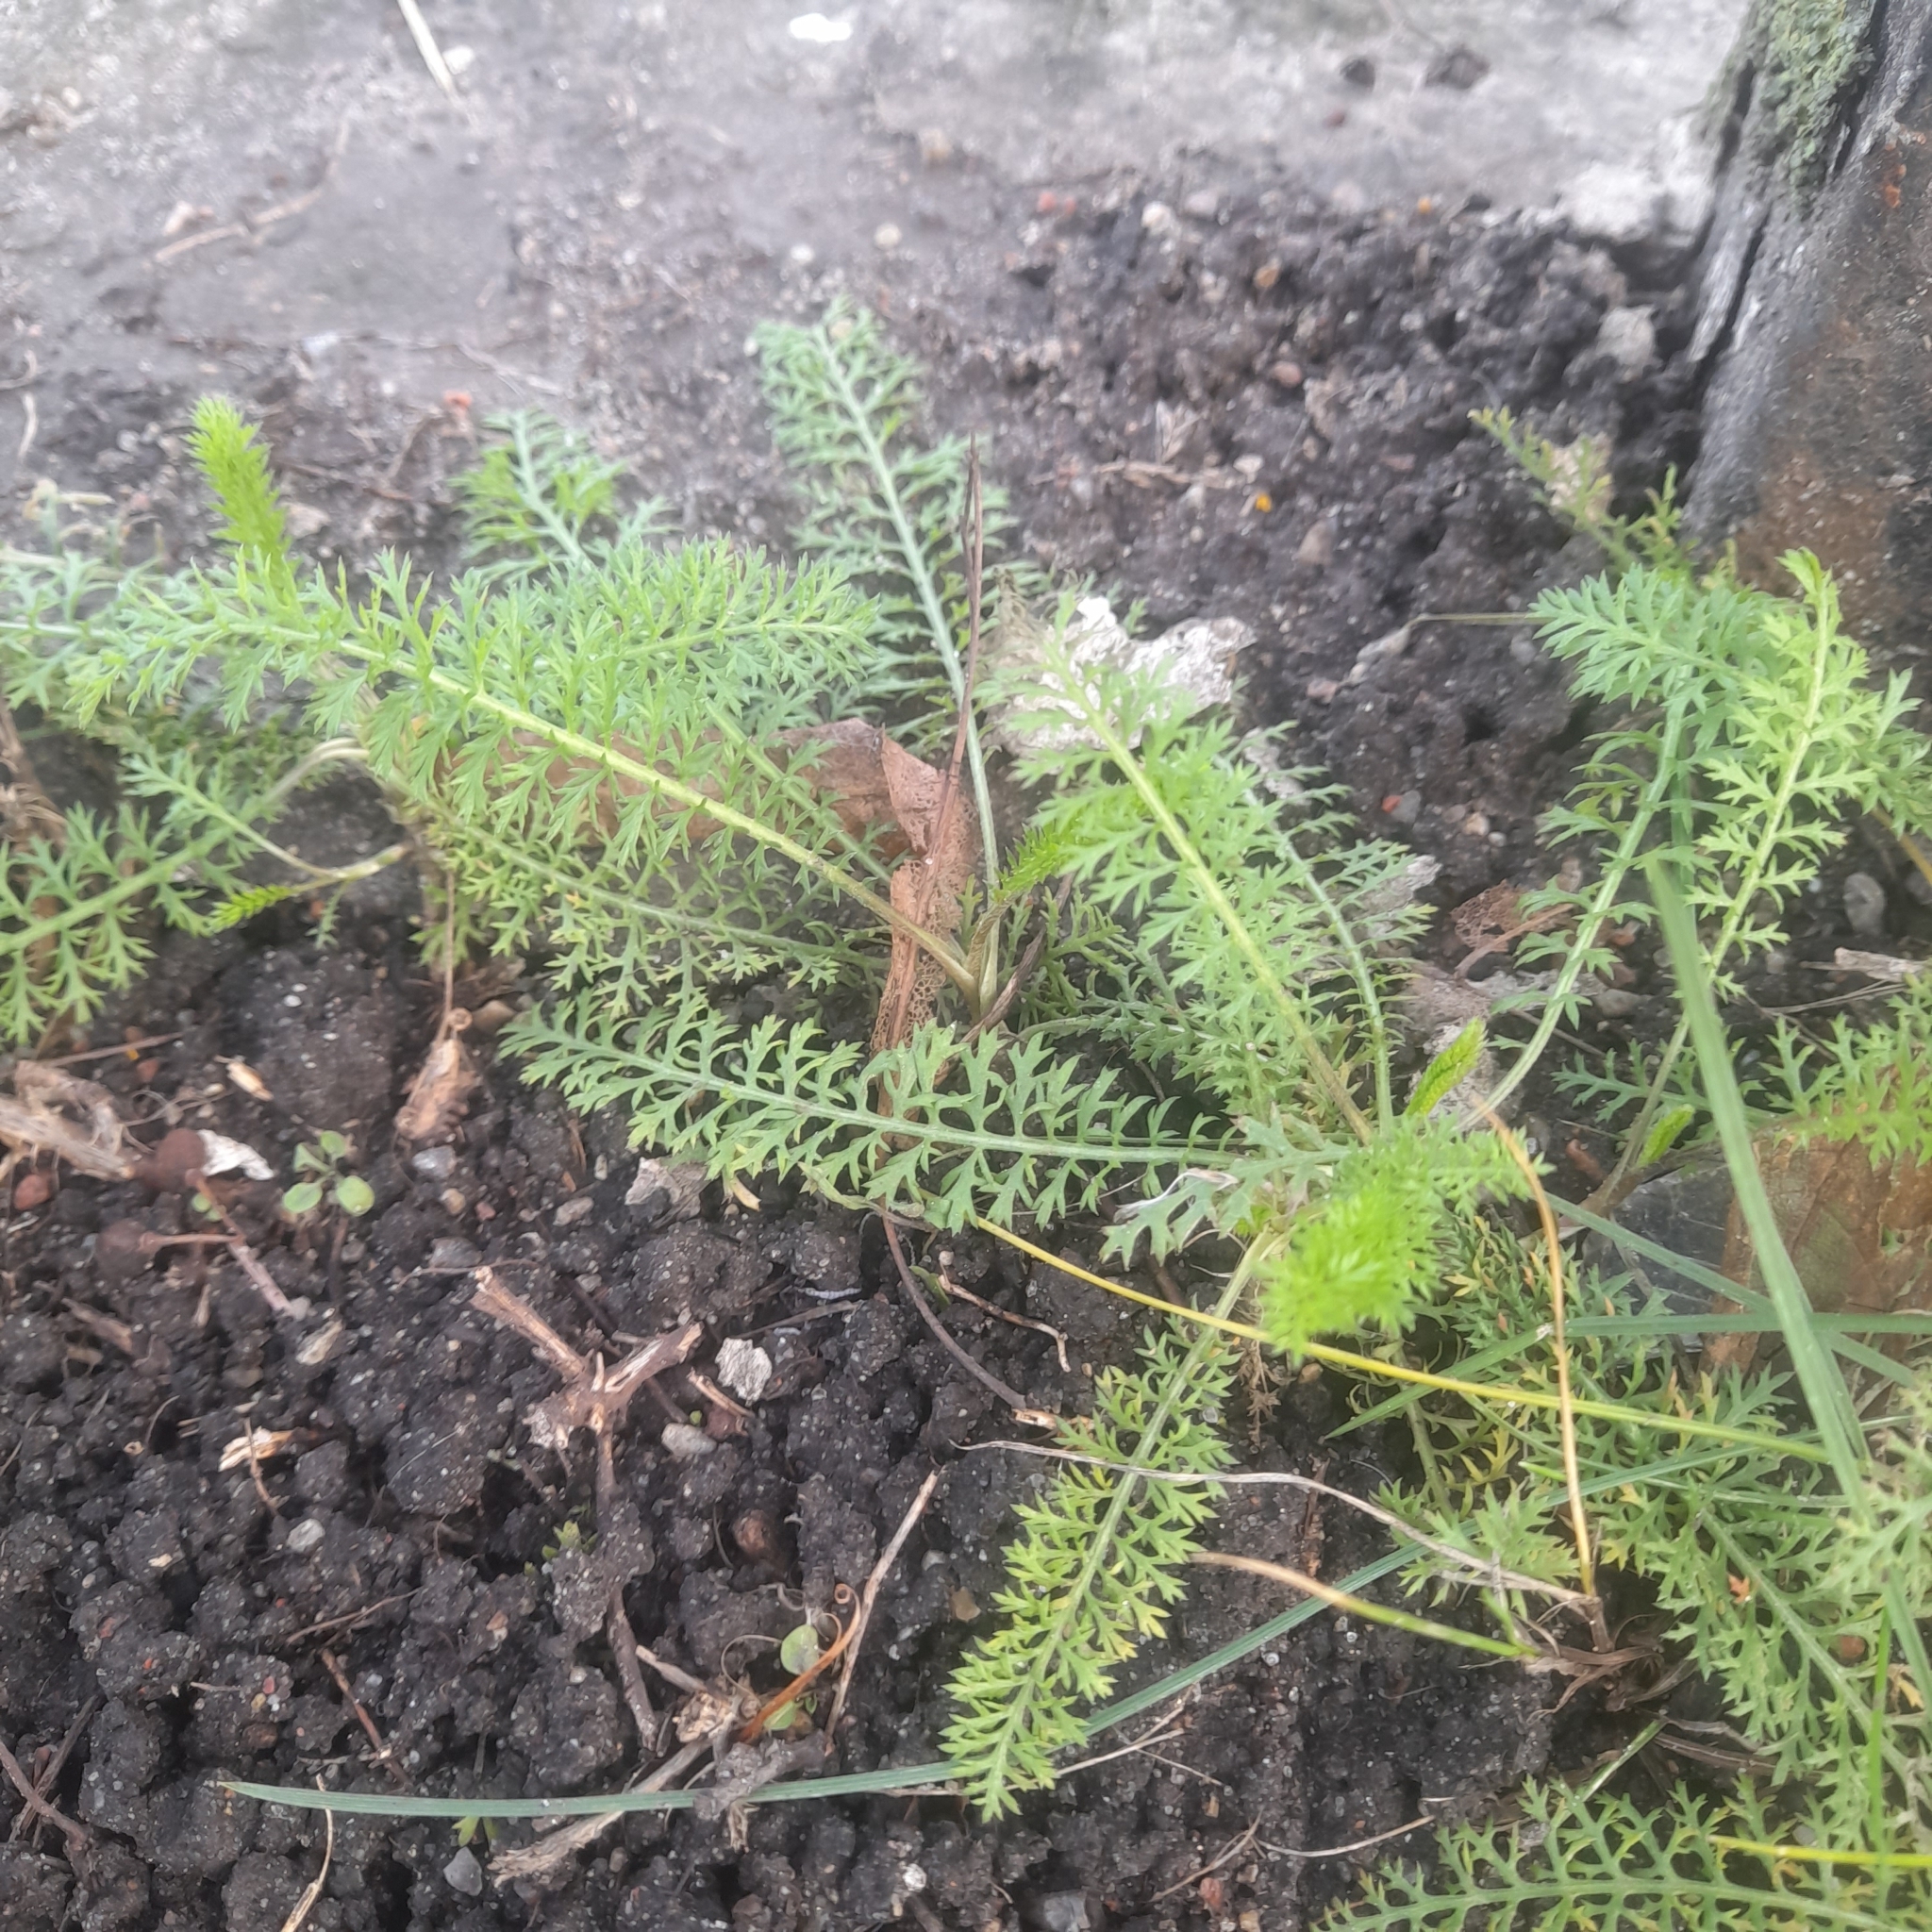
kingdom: Plantae
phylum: Tracheophyta
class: Magnoliopsida
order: Asterales
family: Asteraceae
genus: Achillea
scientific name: Achillea millefolium
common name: Yarrow
